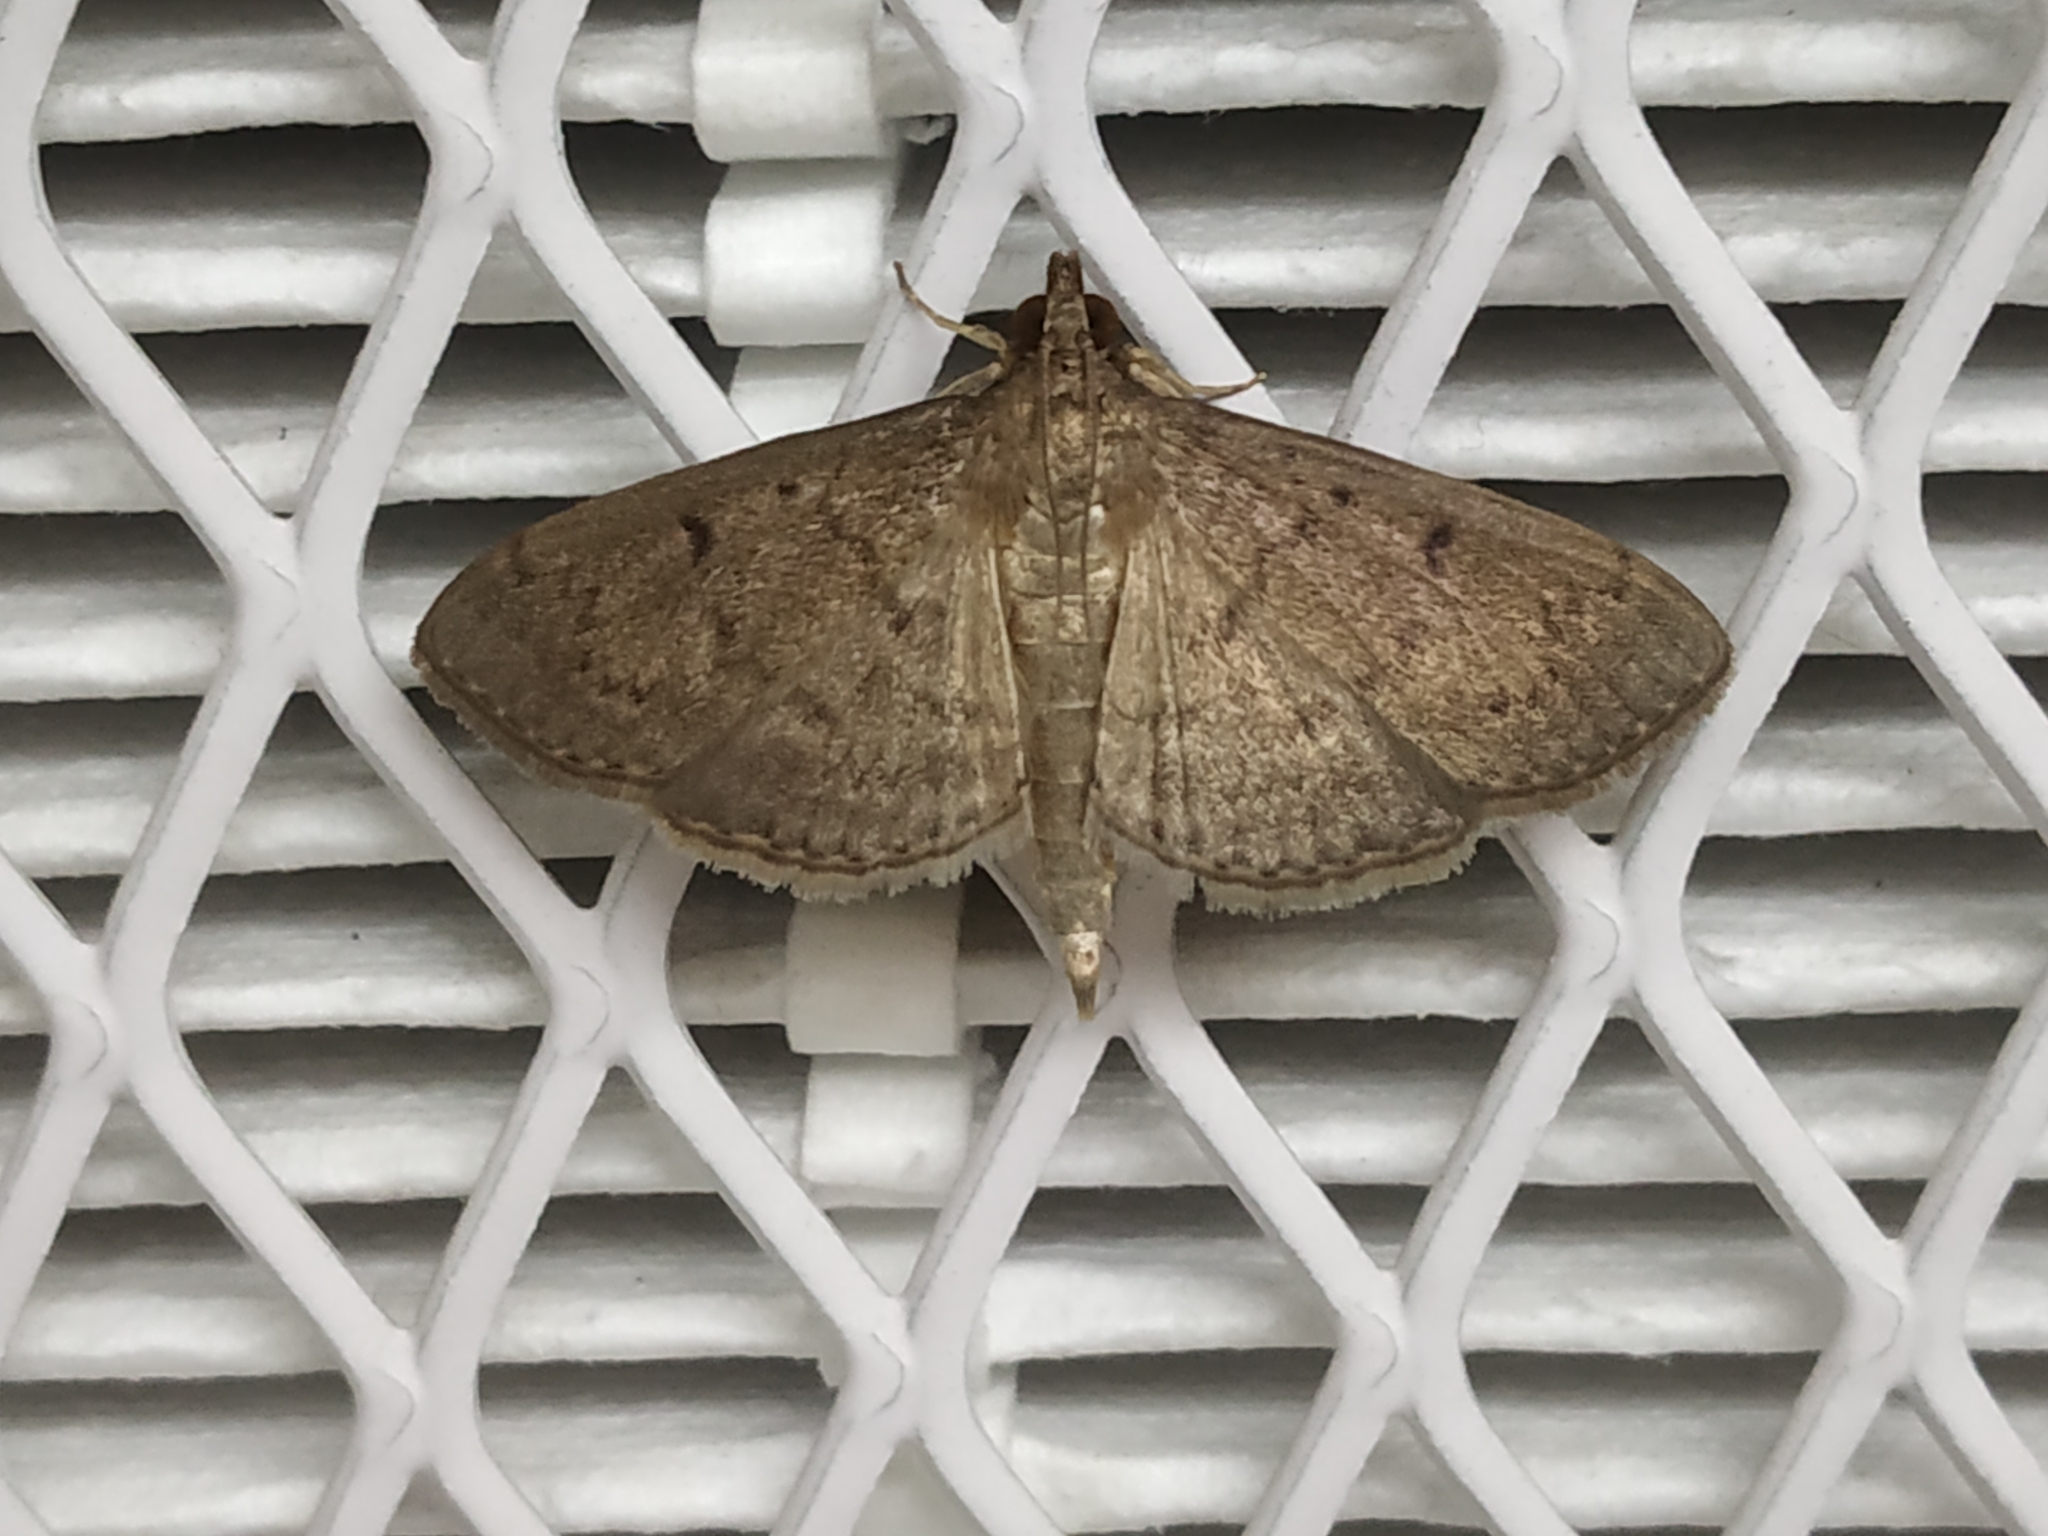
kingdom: Animalia
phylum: Arthropoda
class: Insecta
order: Lepidoptera
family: Crambidae
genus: Herpetogramma
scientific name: Herpetogramma phaeopteralis
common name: Dusky herpetogramma moth
